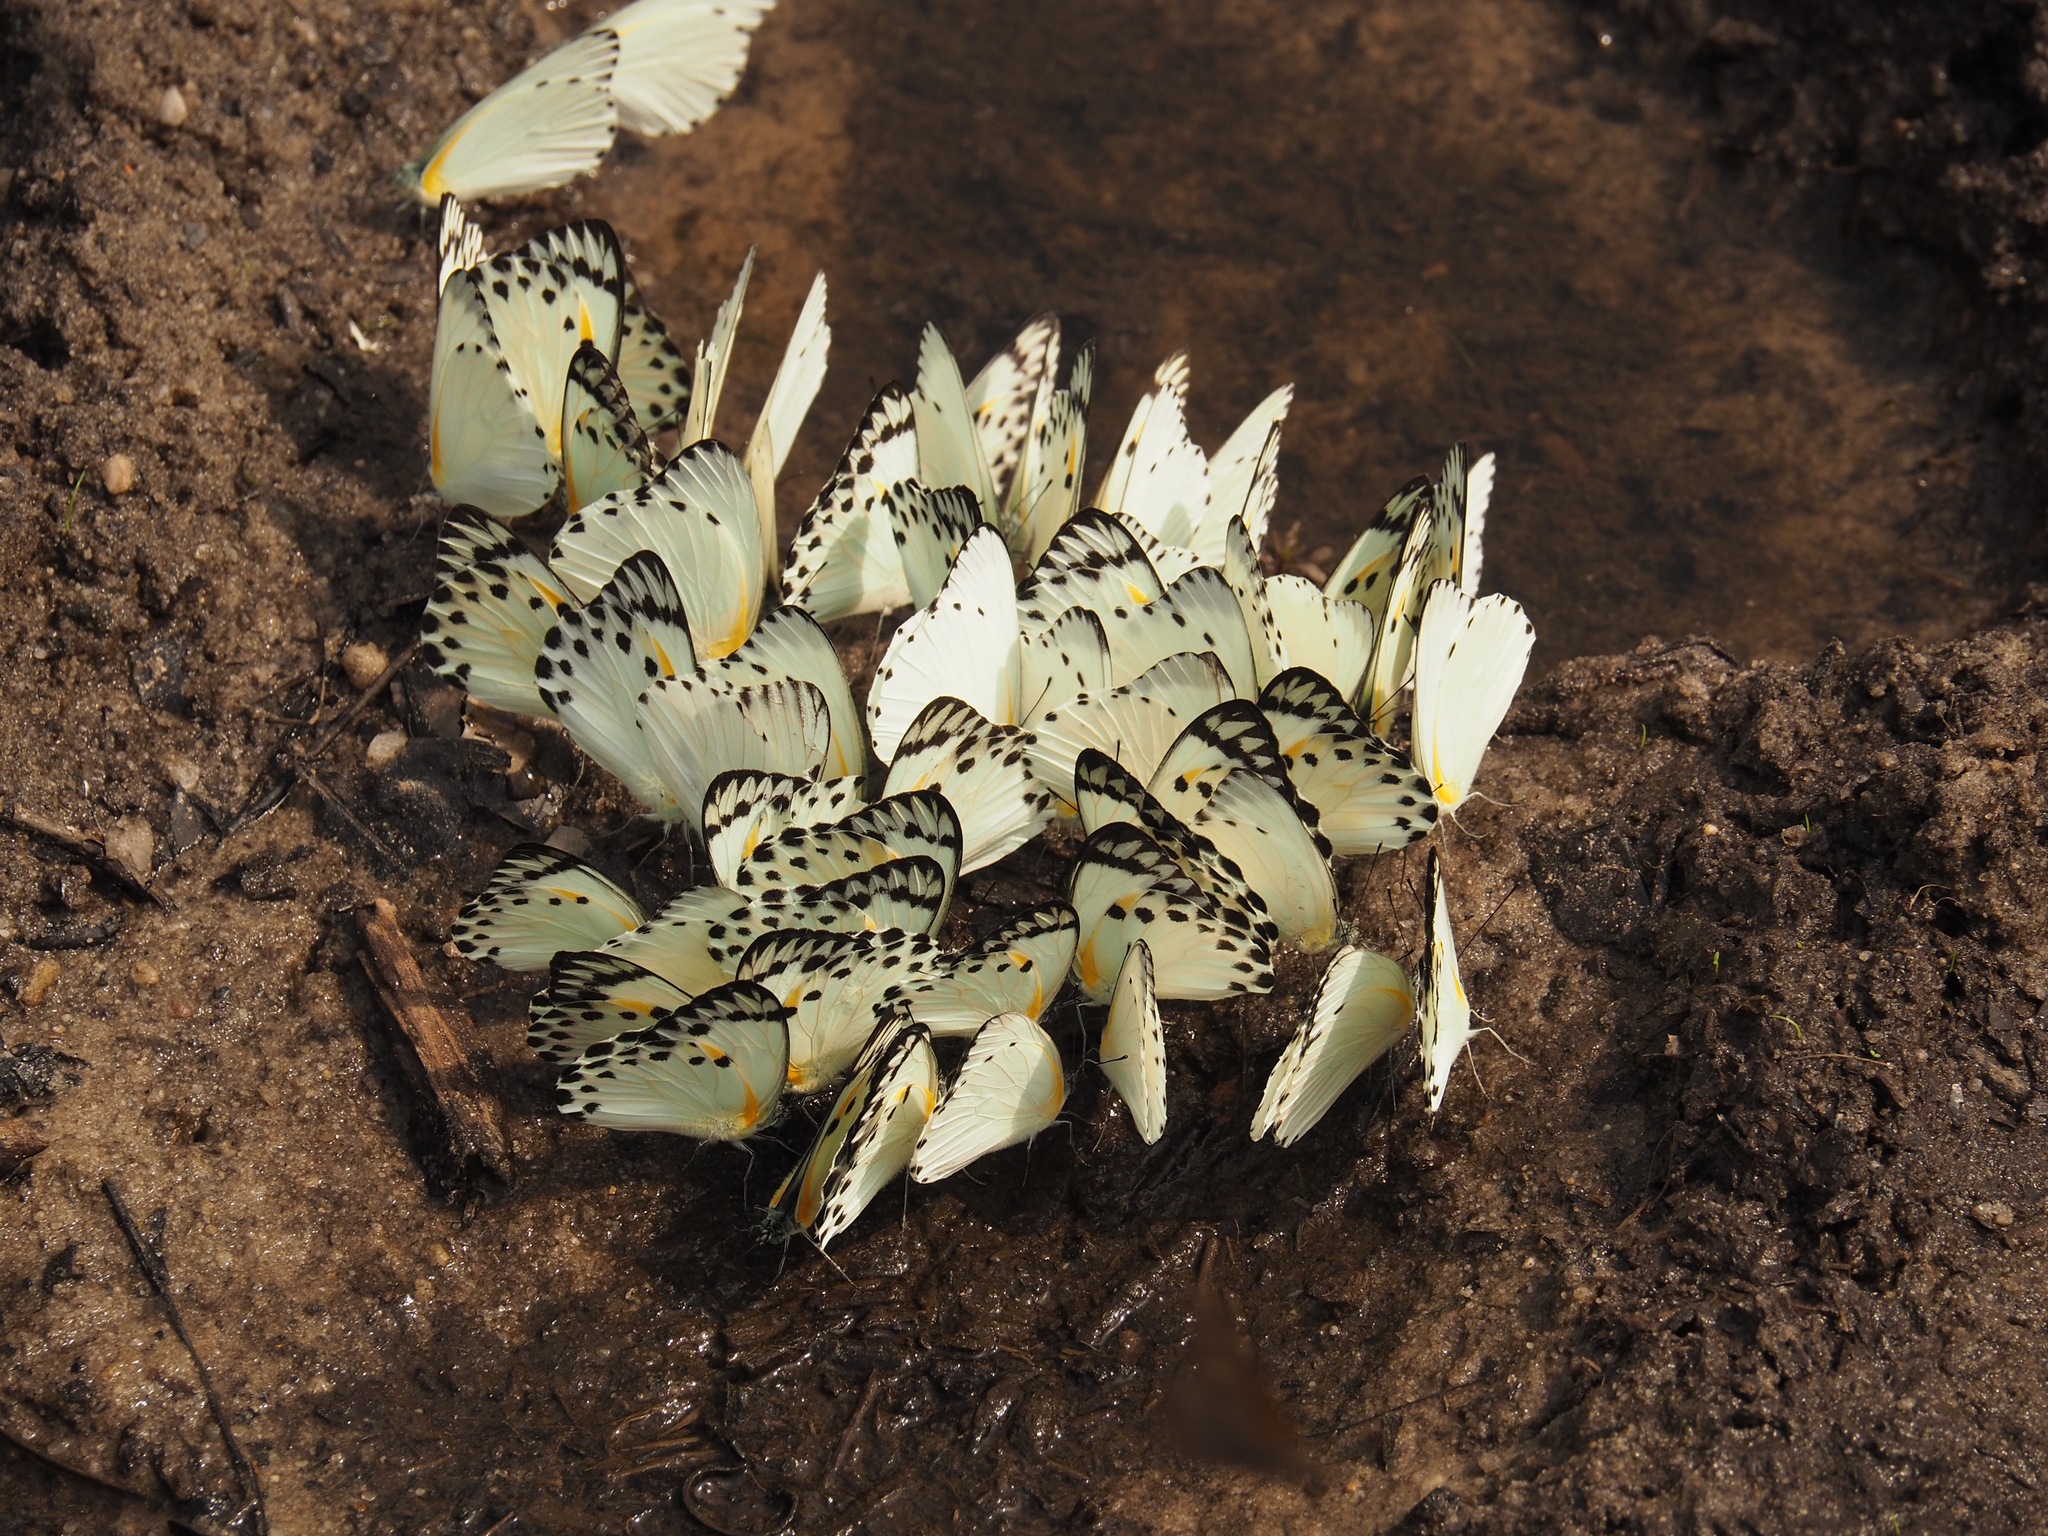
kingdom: Animalia
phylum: Arthropoda
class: Insecta
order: Lepidoptera
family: Pieridae
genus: Belenois
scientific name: Belenois theora
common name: Forest caper white
